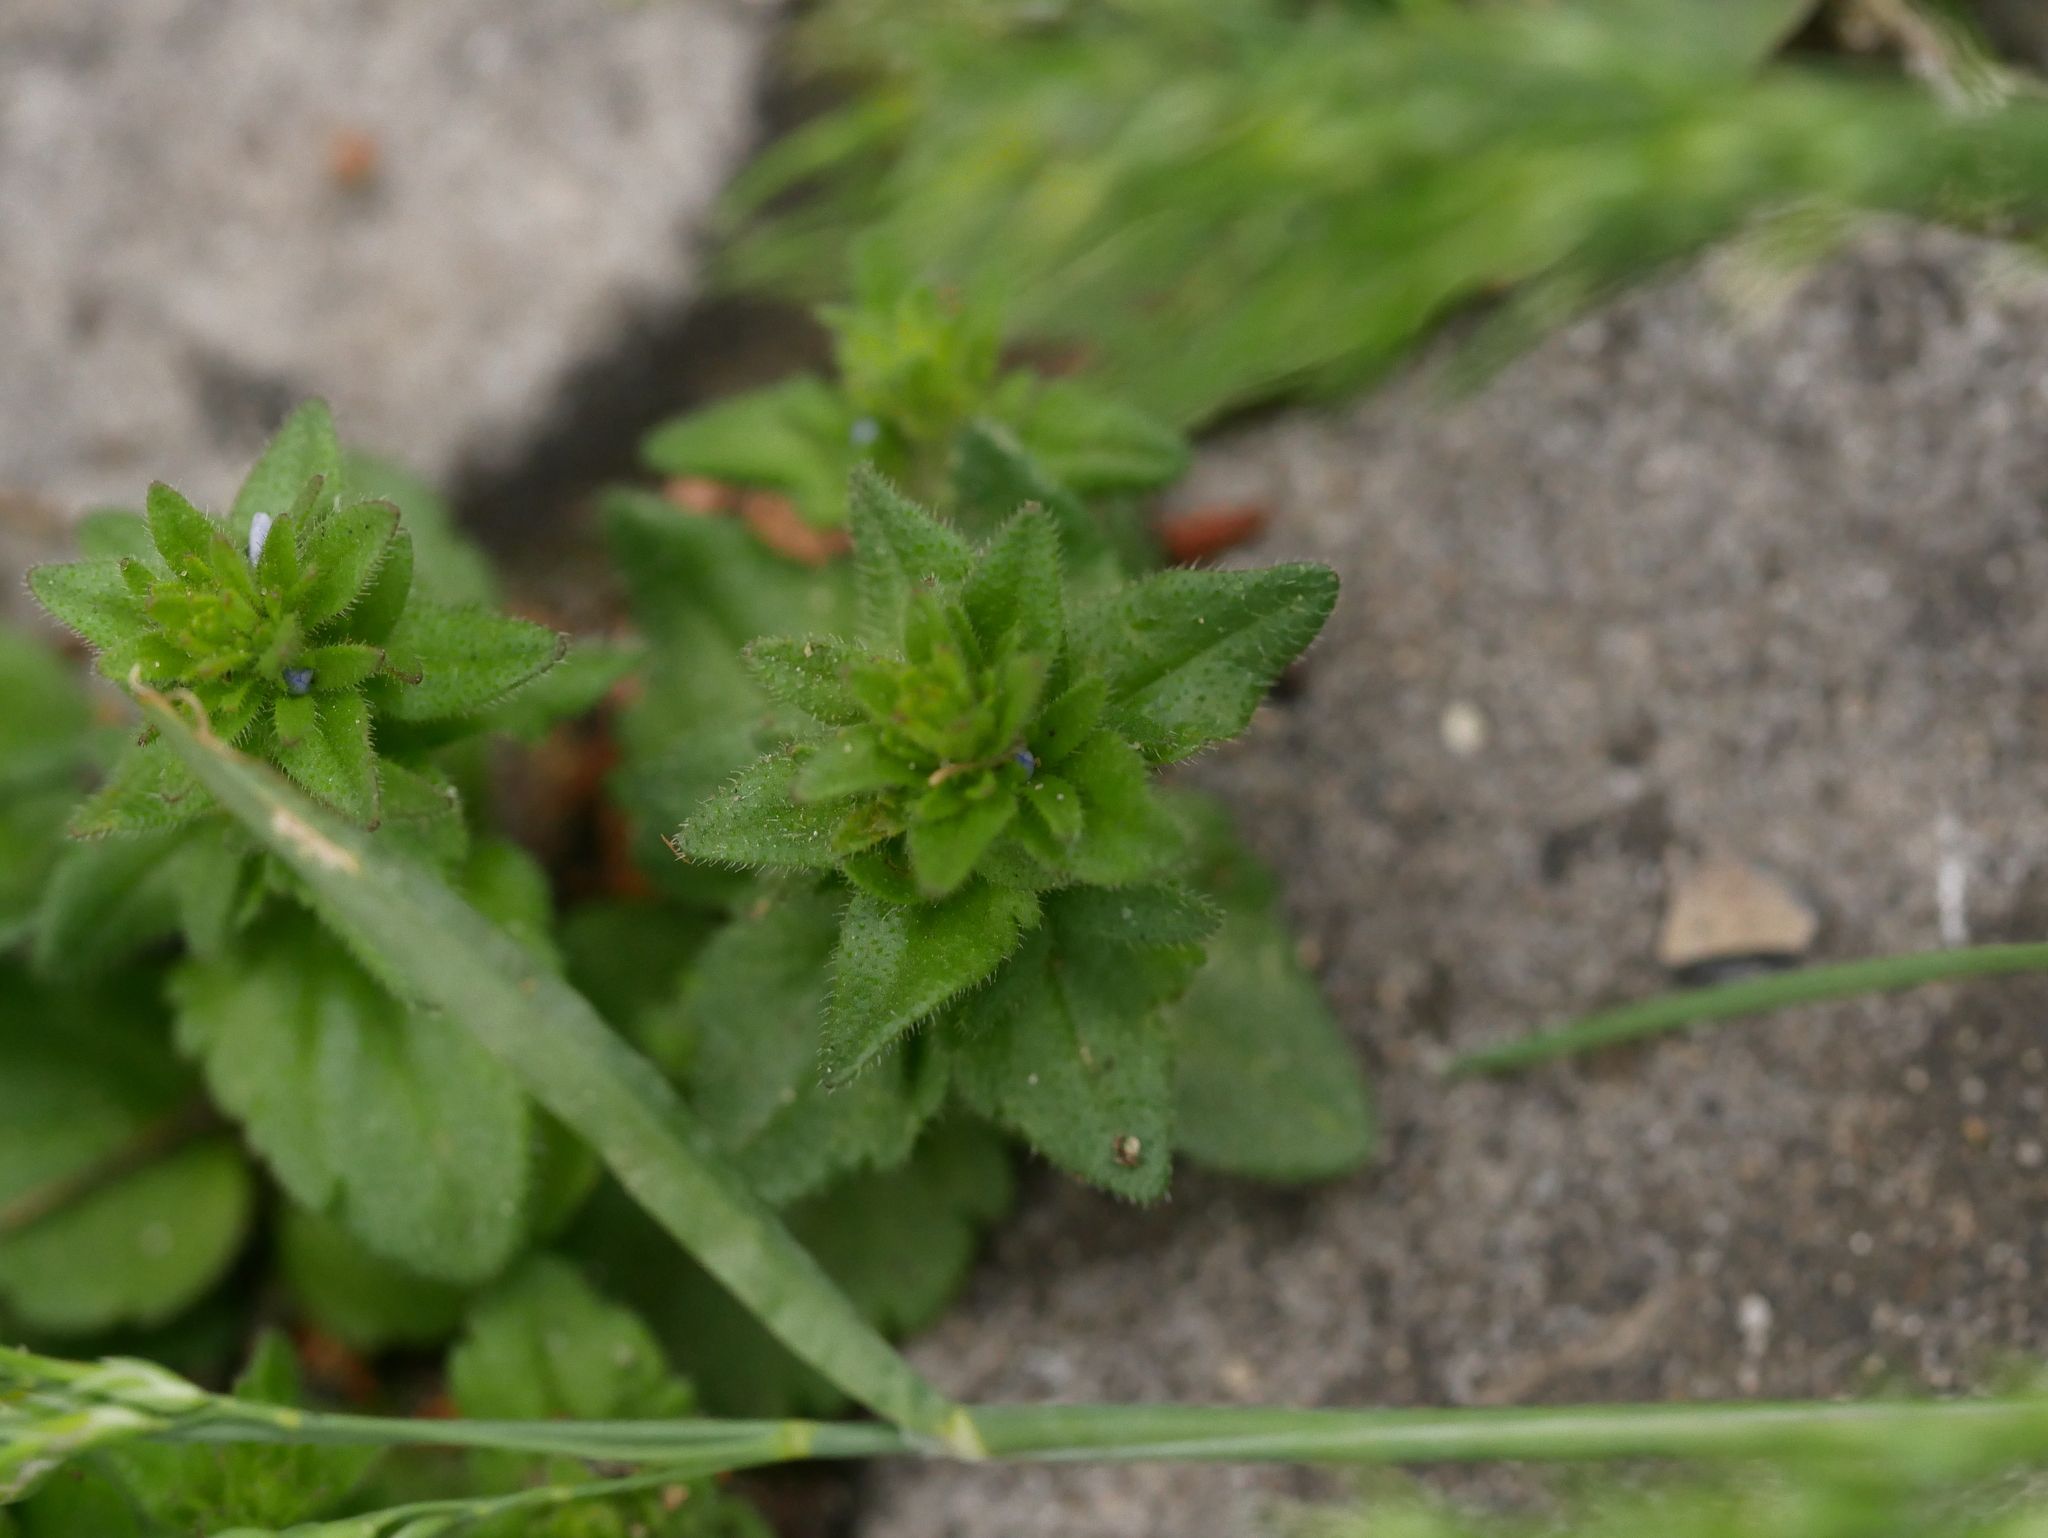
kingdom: Plantae
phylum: Tracheophyta
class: Magnoliopsida
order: Lamiales
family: Plantaginaceae
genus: Veronica
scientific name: Veronica arvensis
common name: Corn speedwell
